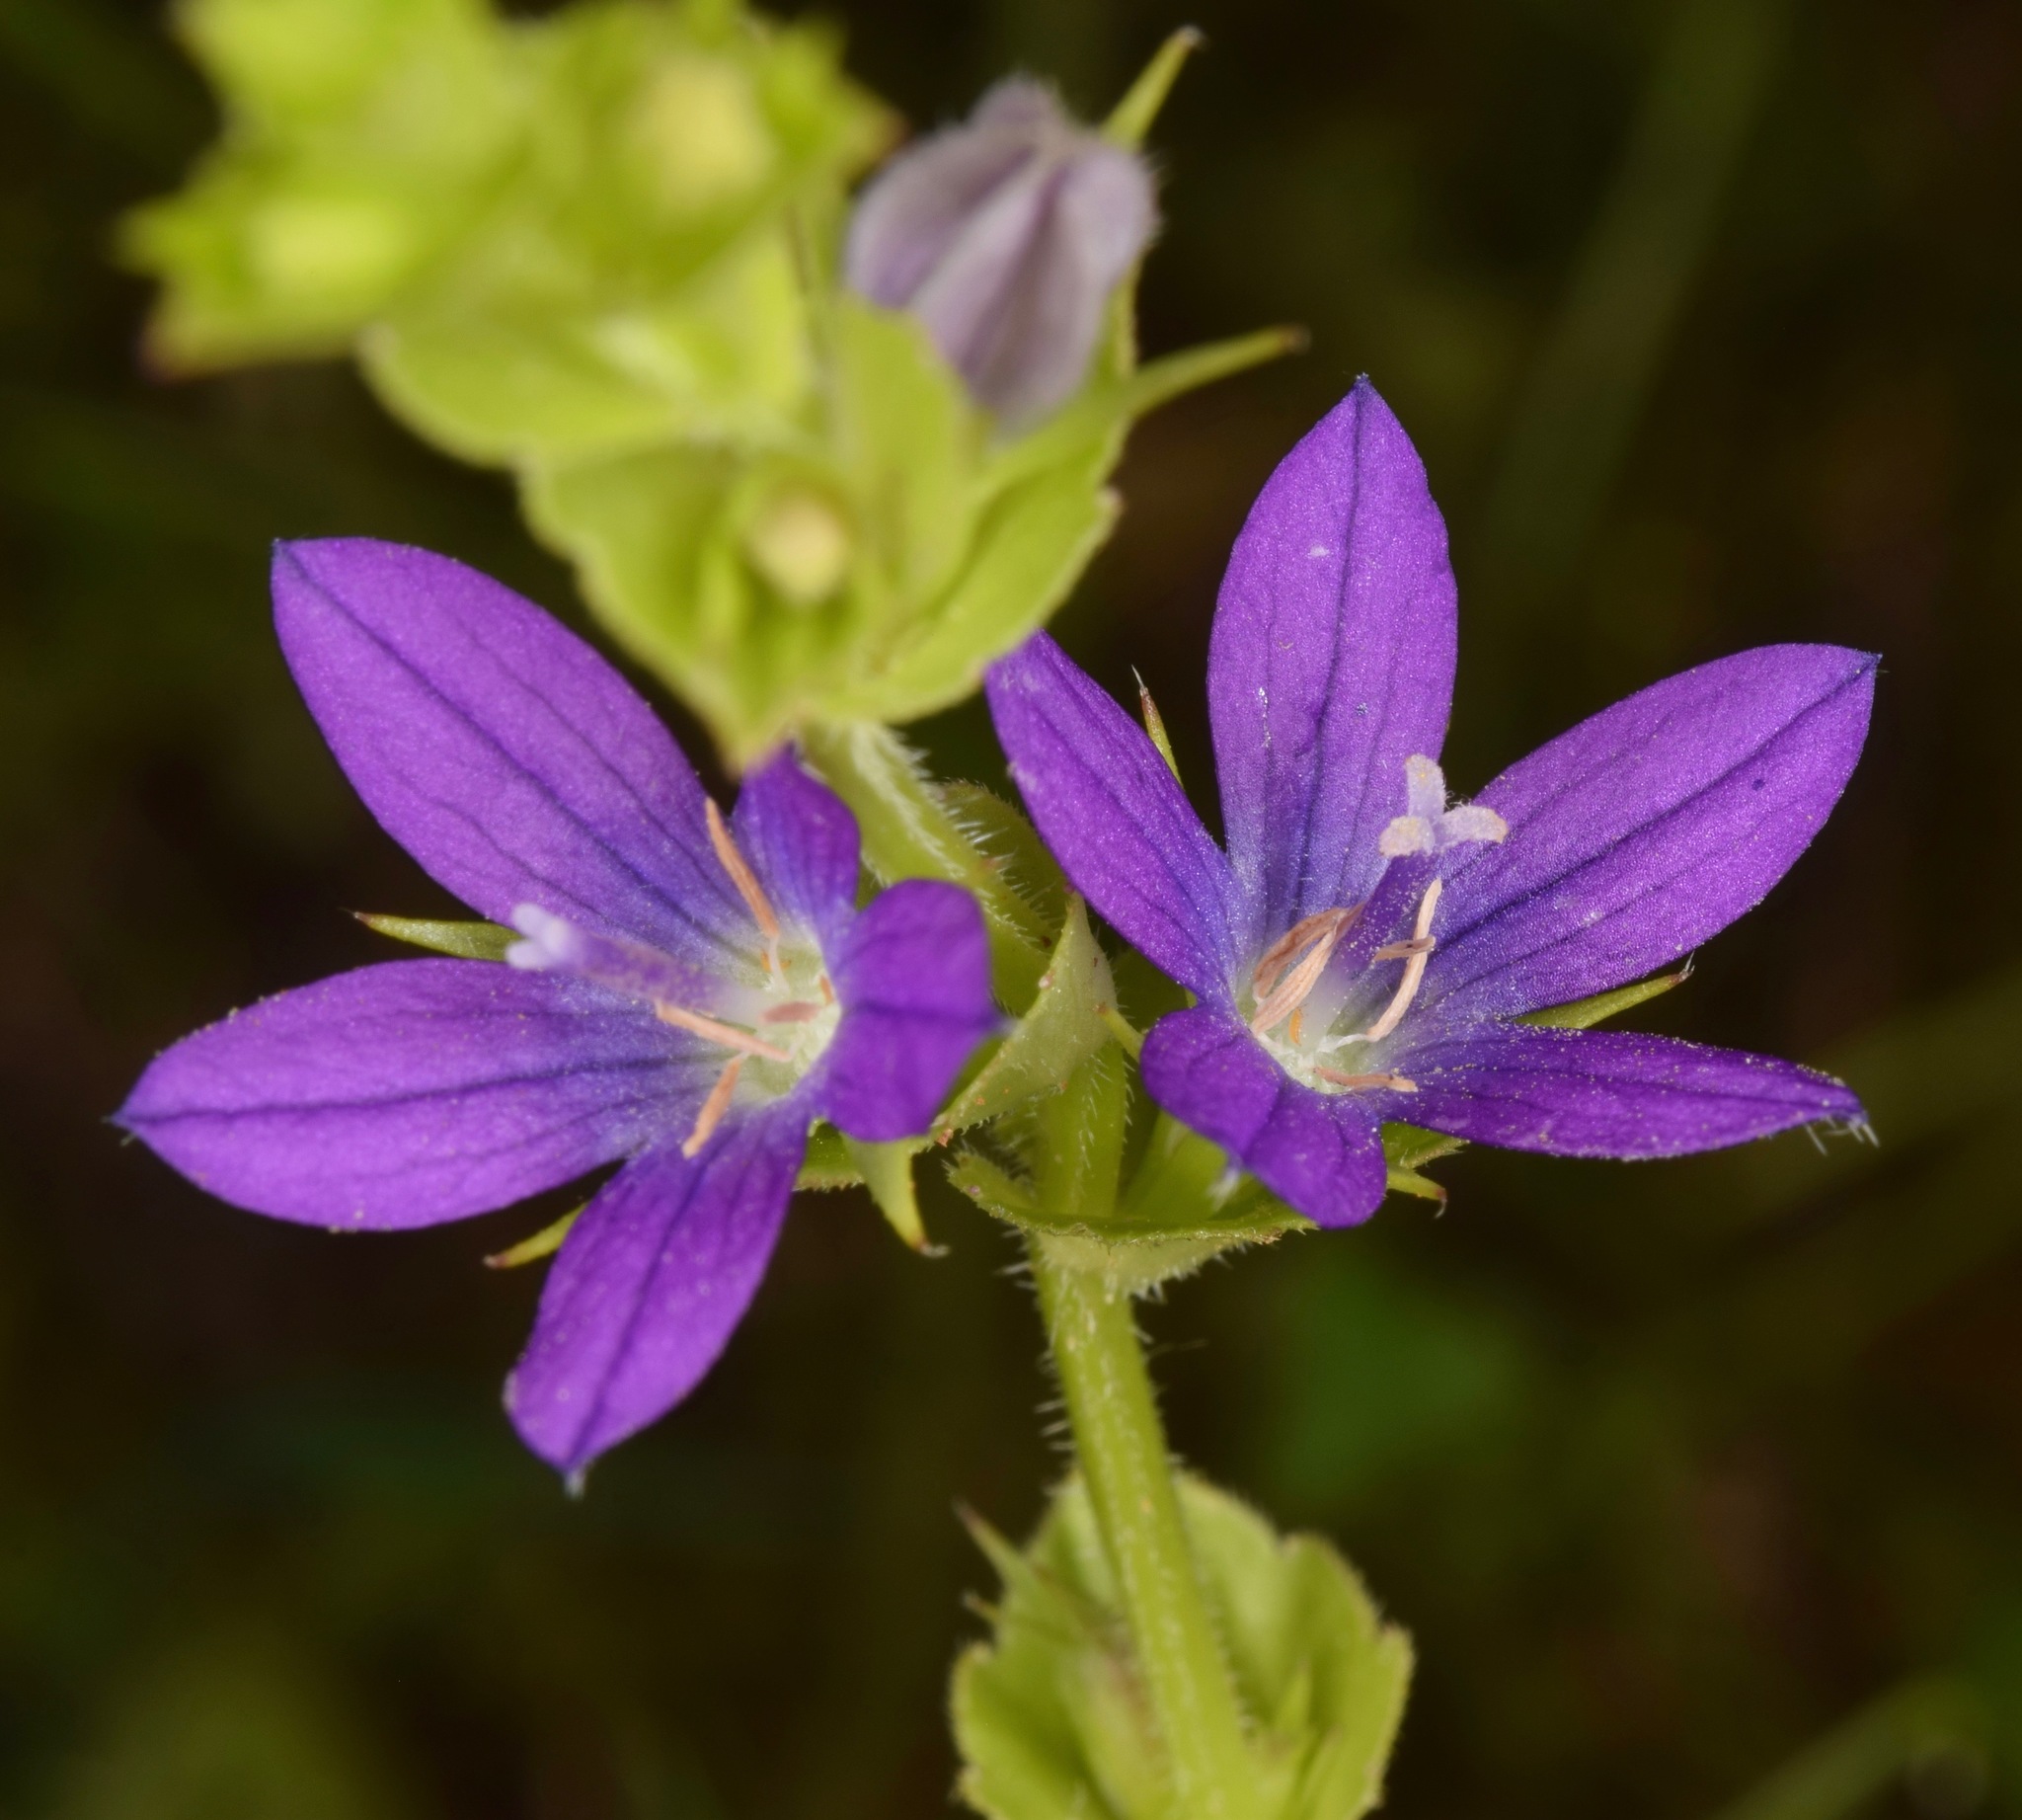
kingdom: Plantae
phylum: Tracheophyta
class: Magnoliopsida
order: Asterales
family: Campanulaceae
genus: Triodanis
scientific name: Triodanis perfoliata
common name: Clasping venus' looking-glass
